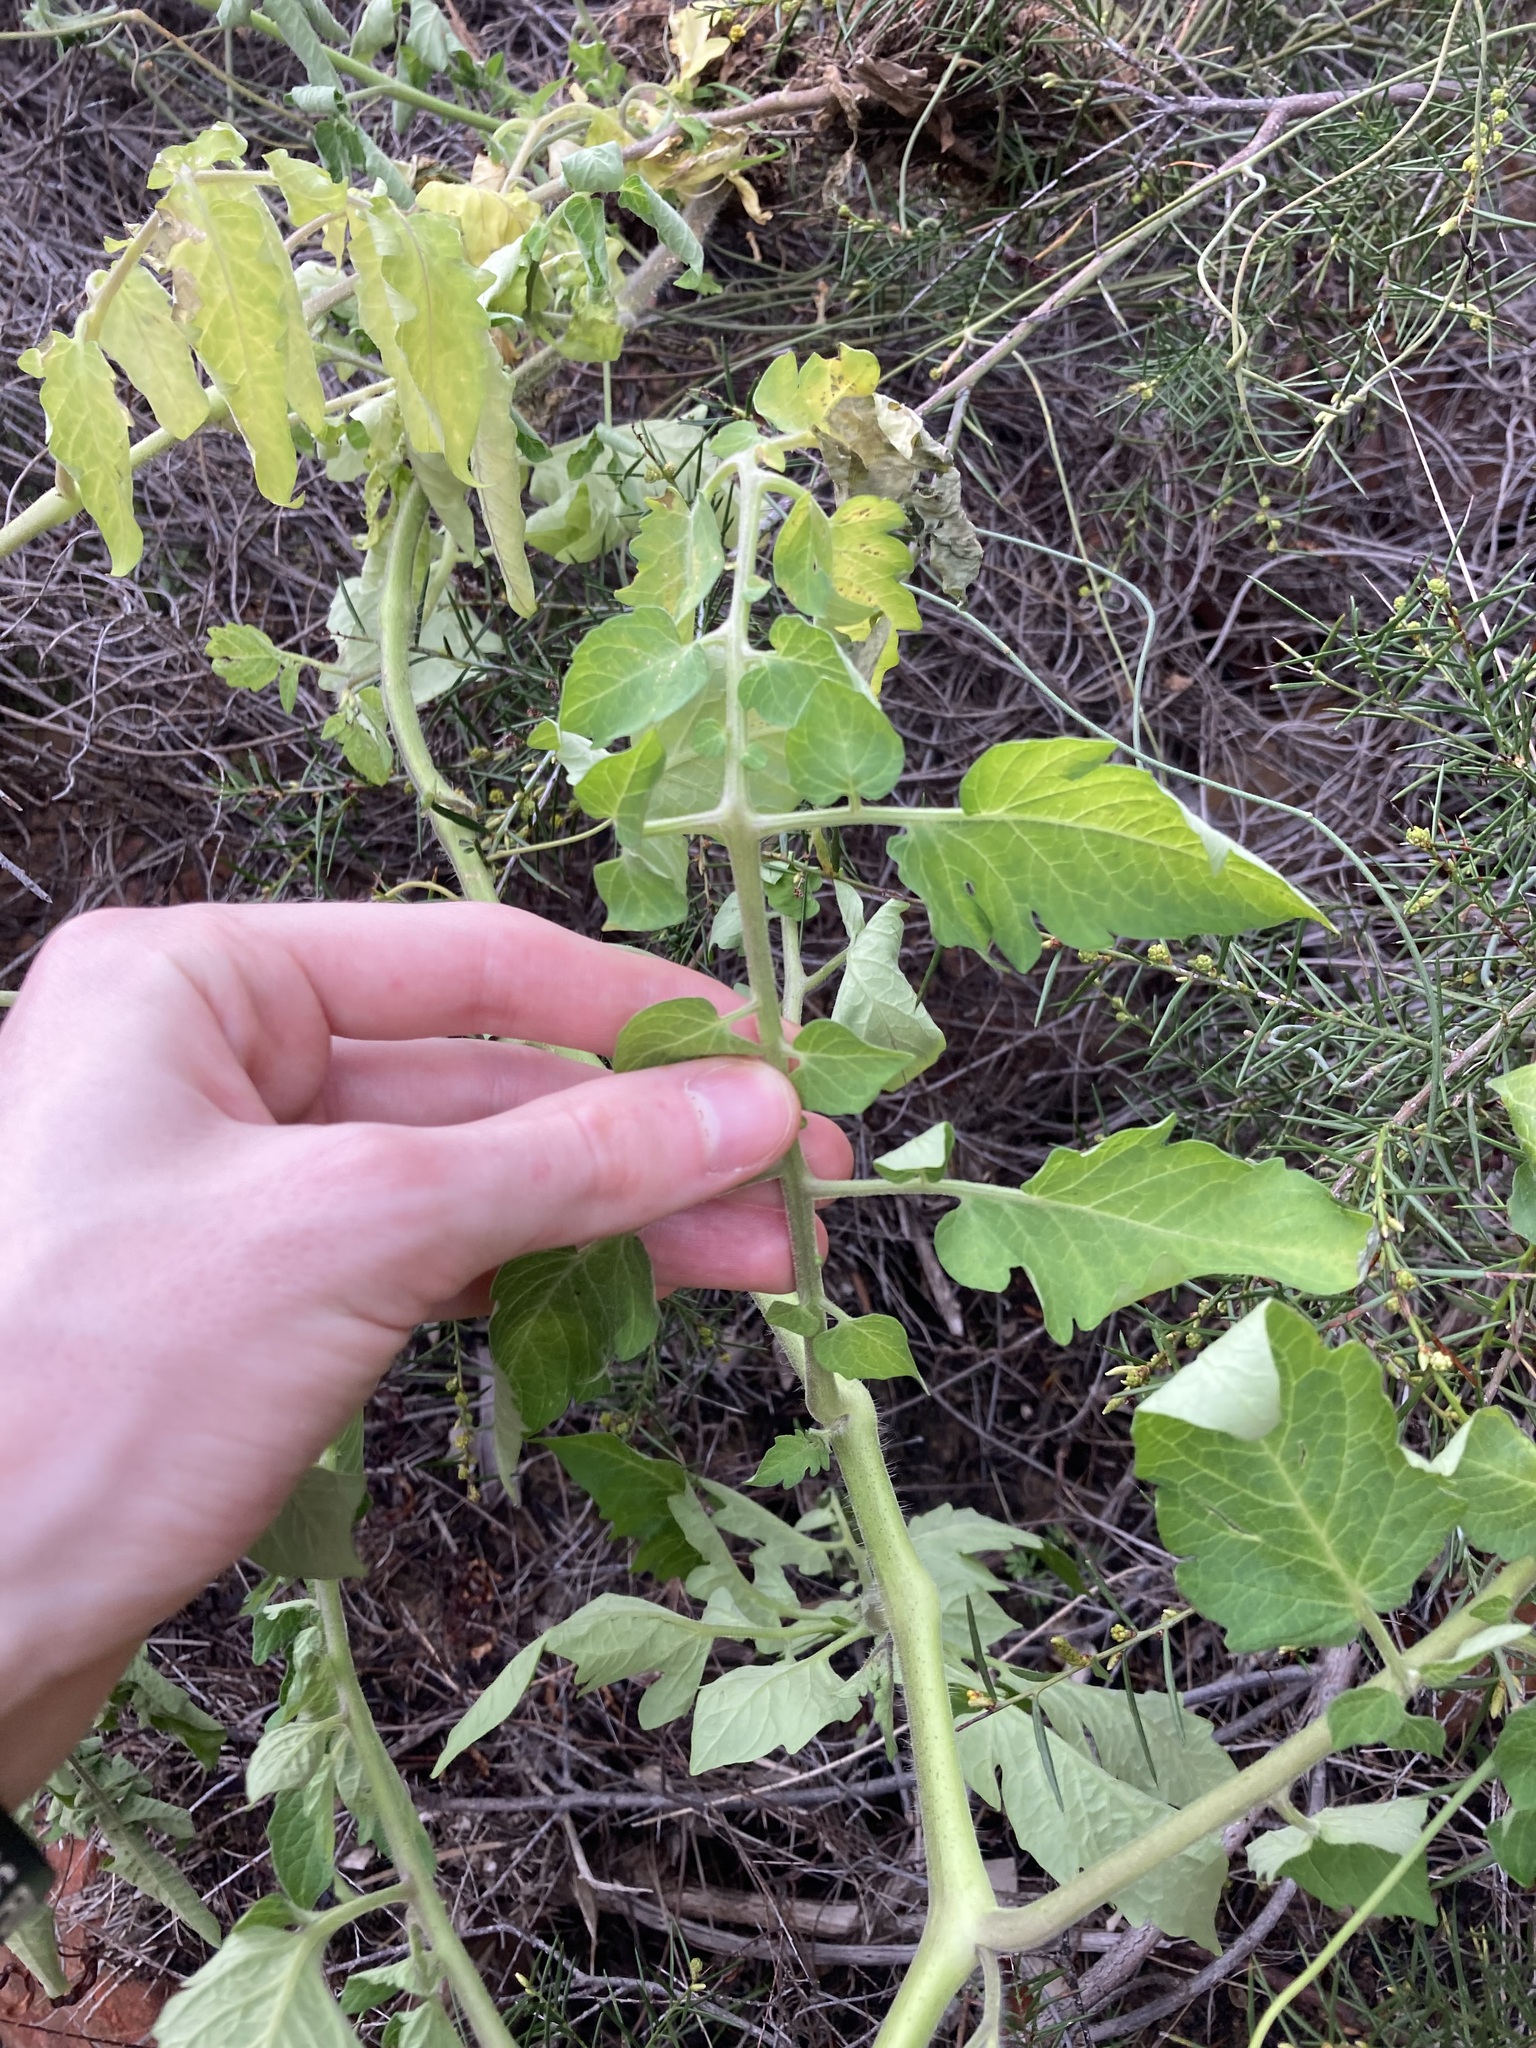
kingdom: Plantae
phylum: Tracheophyta
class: Magnoliopsida
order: Solanales
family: Solanaceae
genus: Solanum
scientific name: Solanum lycopersicum
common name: Garden tomato
